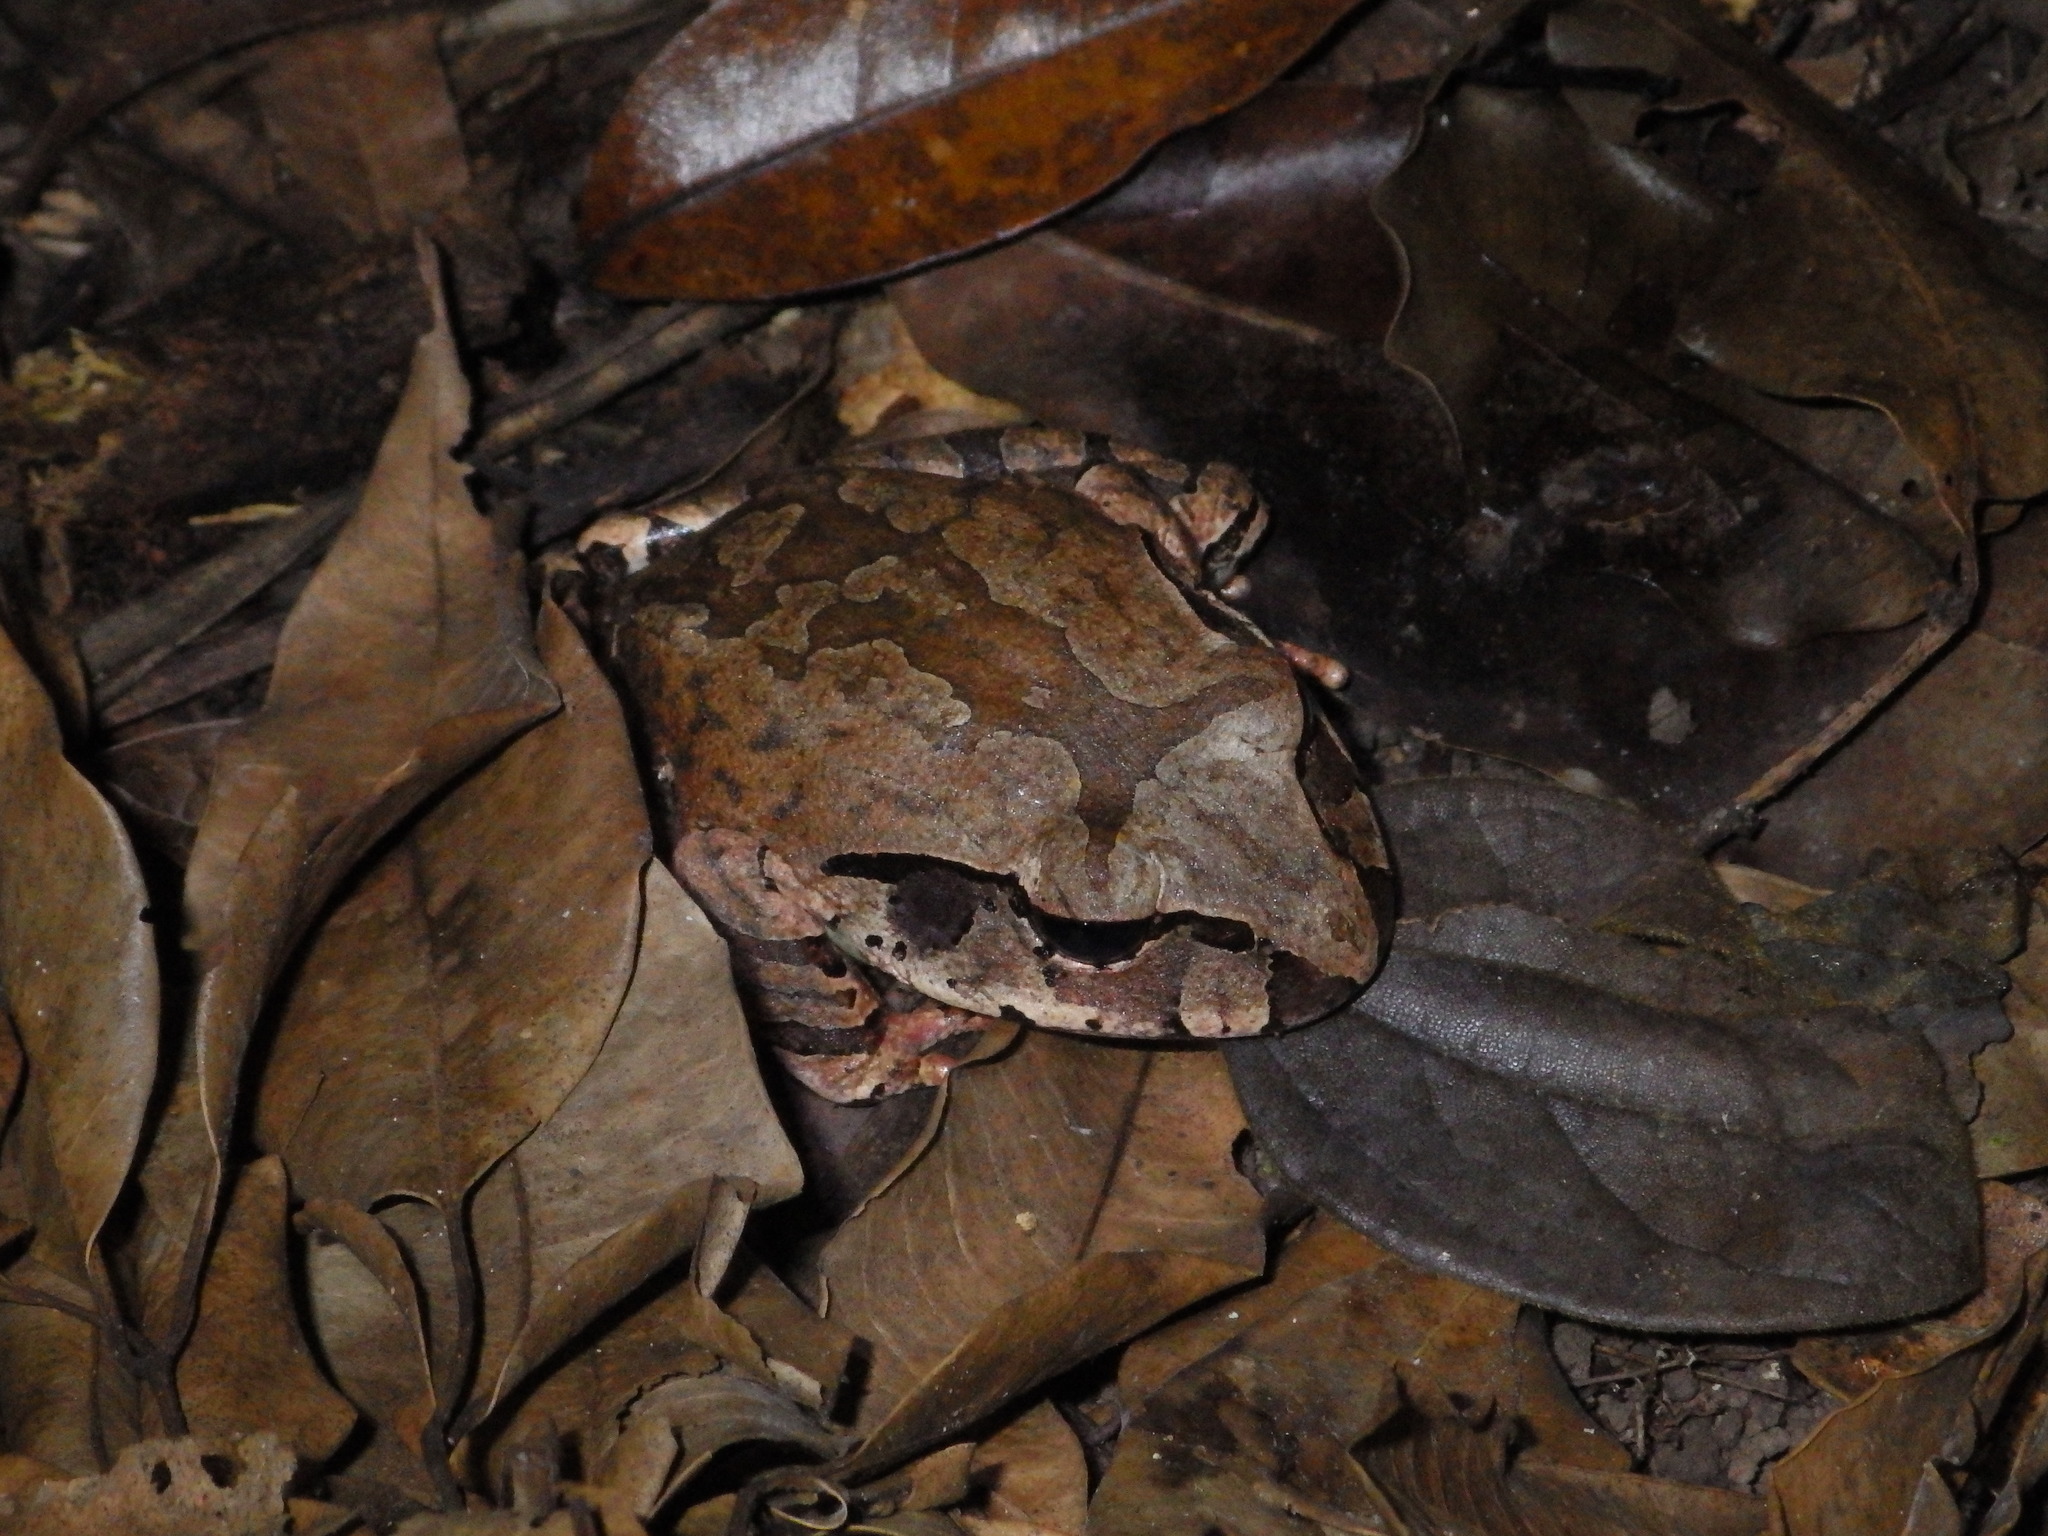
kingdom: Animalia
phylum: Chordata
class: Amphibia
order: Anura
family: Myobatrachidae
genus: Mixophyes
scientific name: Mixophyes schevilli
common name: Northern barred frog
